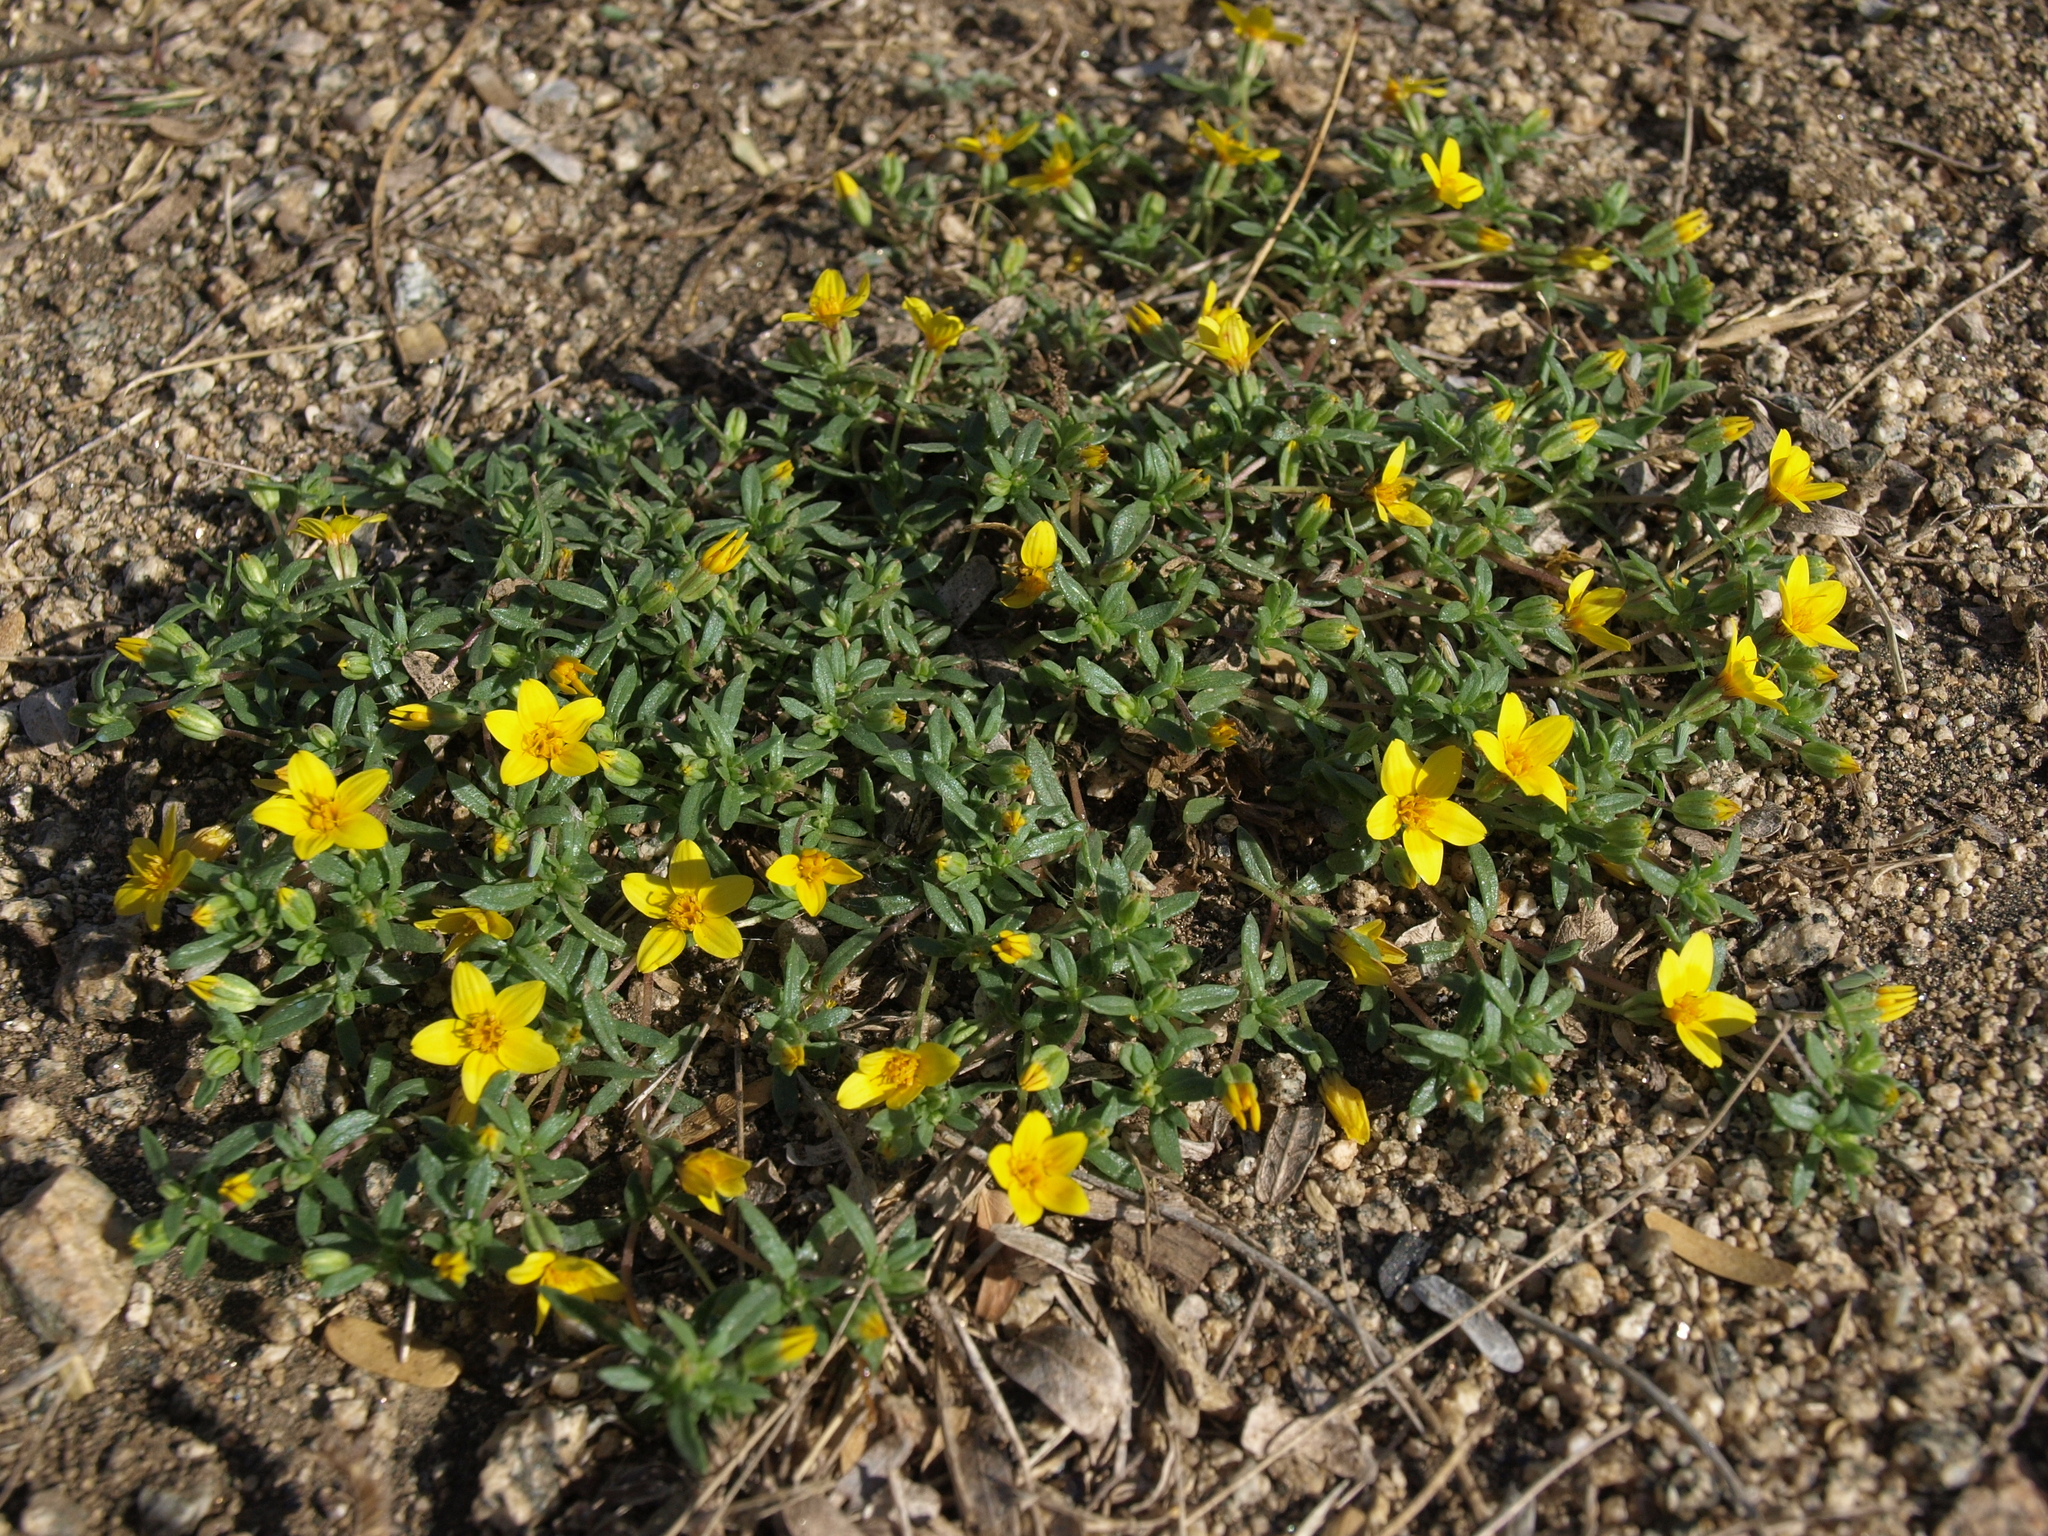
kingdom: Plantae
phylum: Tracheophyta
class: Magnoliopsida
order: Asterales
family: Asteraceae
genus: Pectis
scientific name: Pectis multiseta
